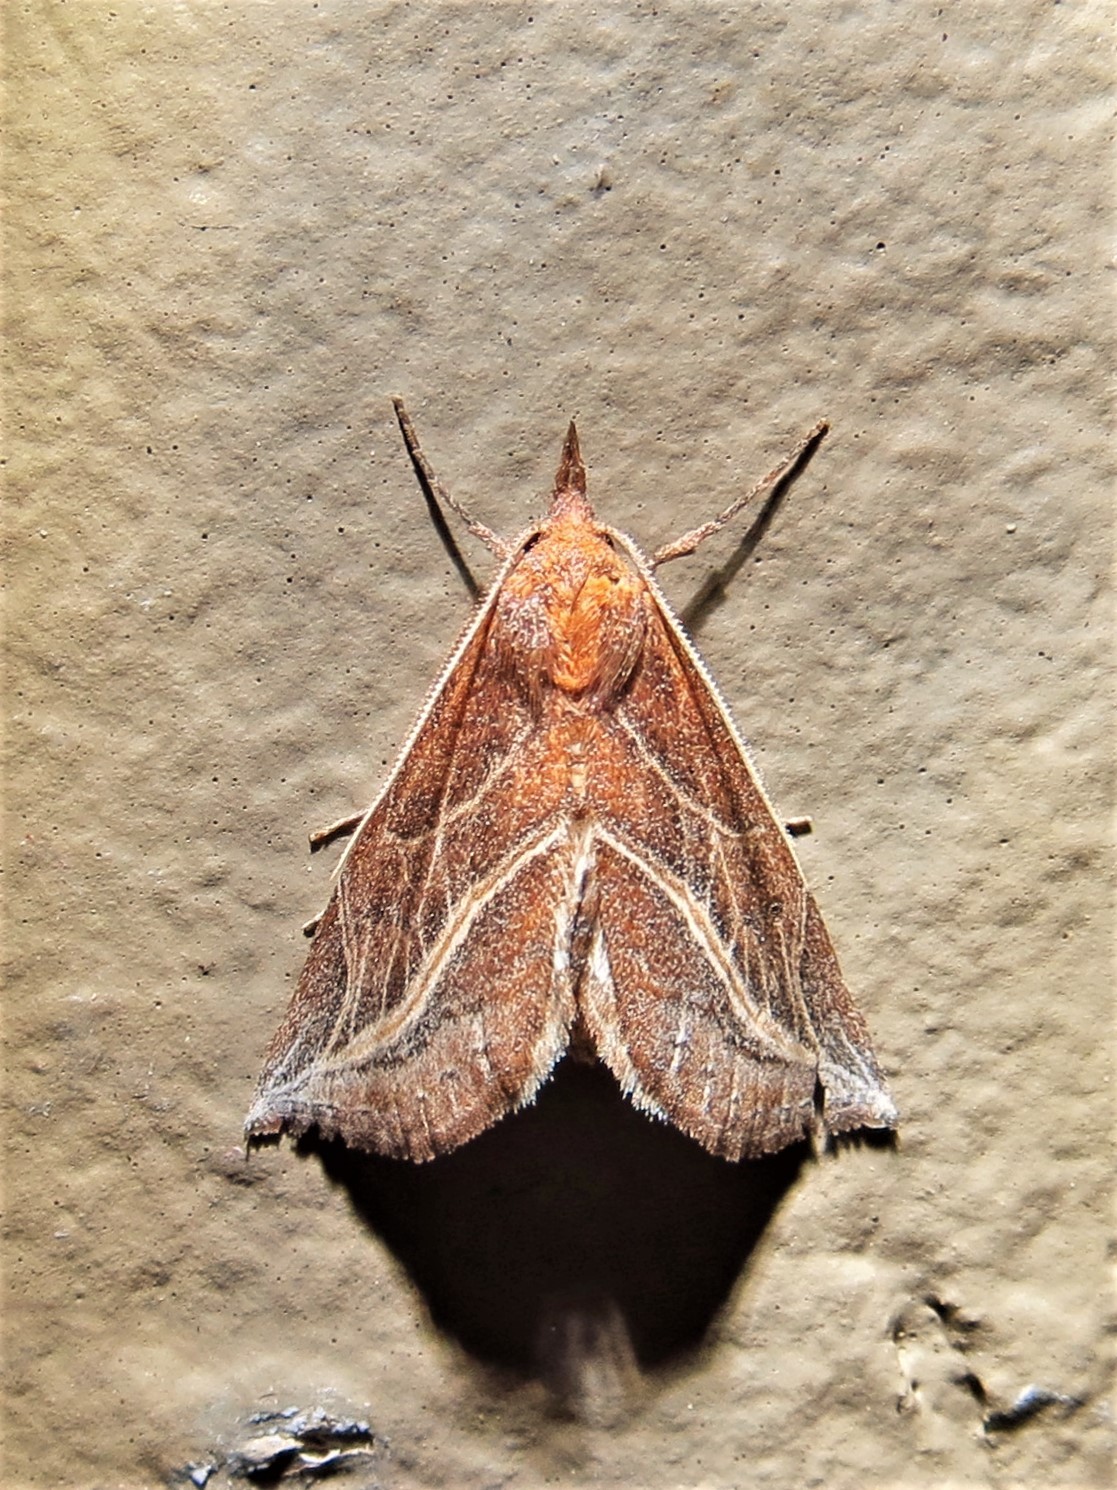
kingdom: Animalia
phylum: Arthropoda
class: Insecta
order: Lepidoptera
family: Erebidae
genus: Phyprosopus
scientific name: Phyprosopus callitrichoides
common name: Curved-lined owlet
